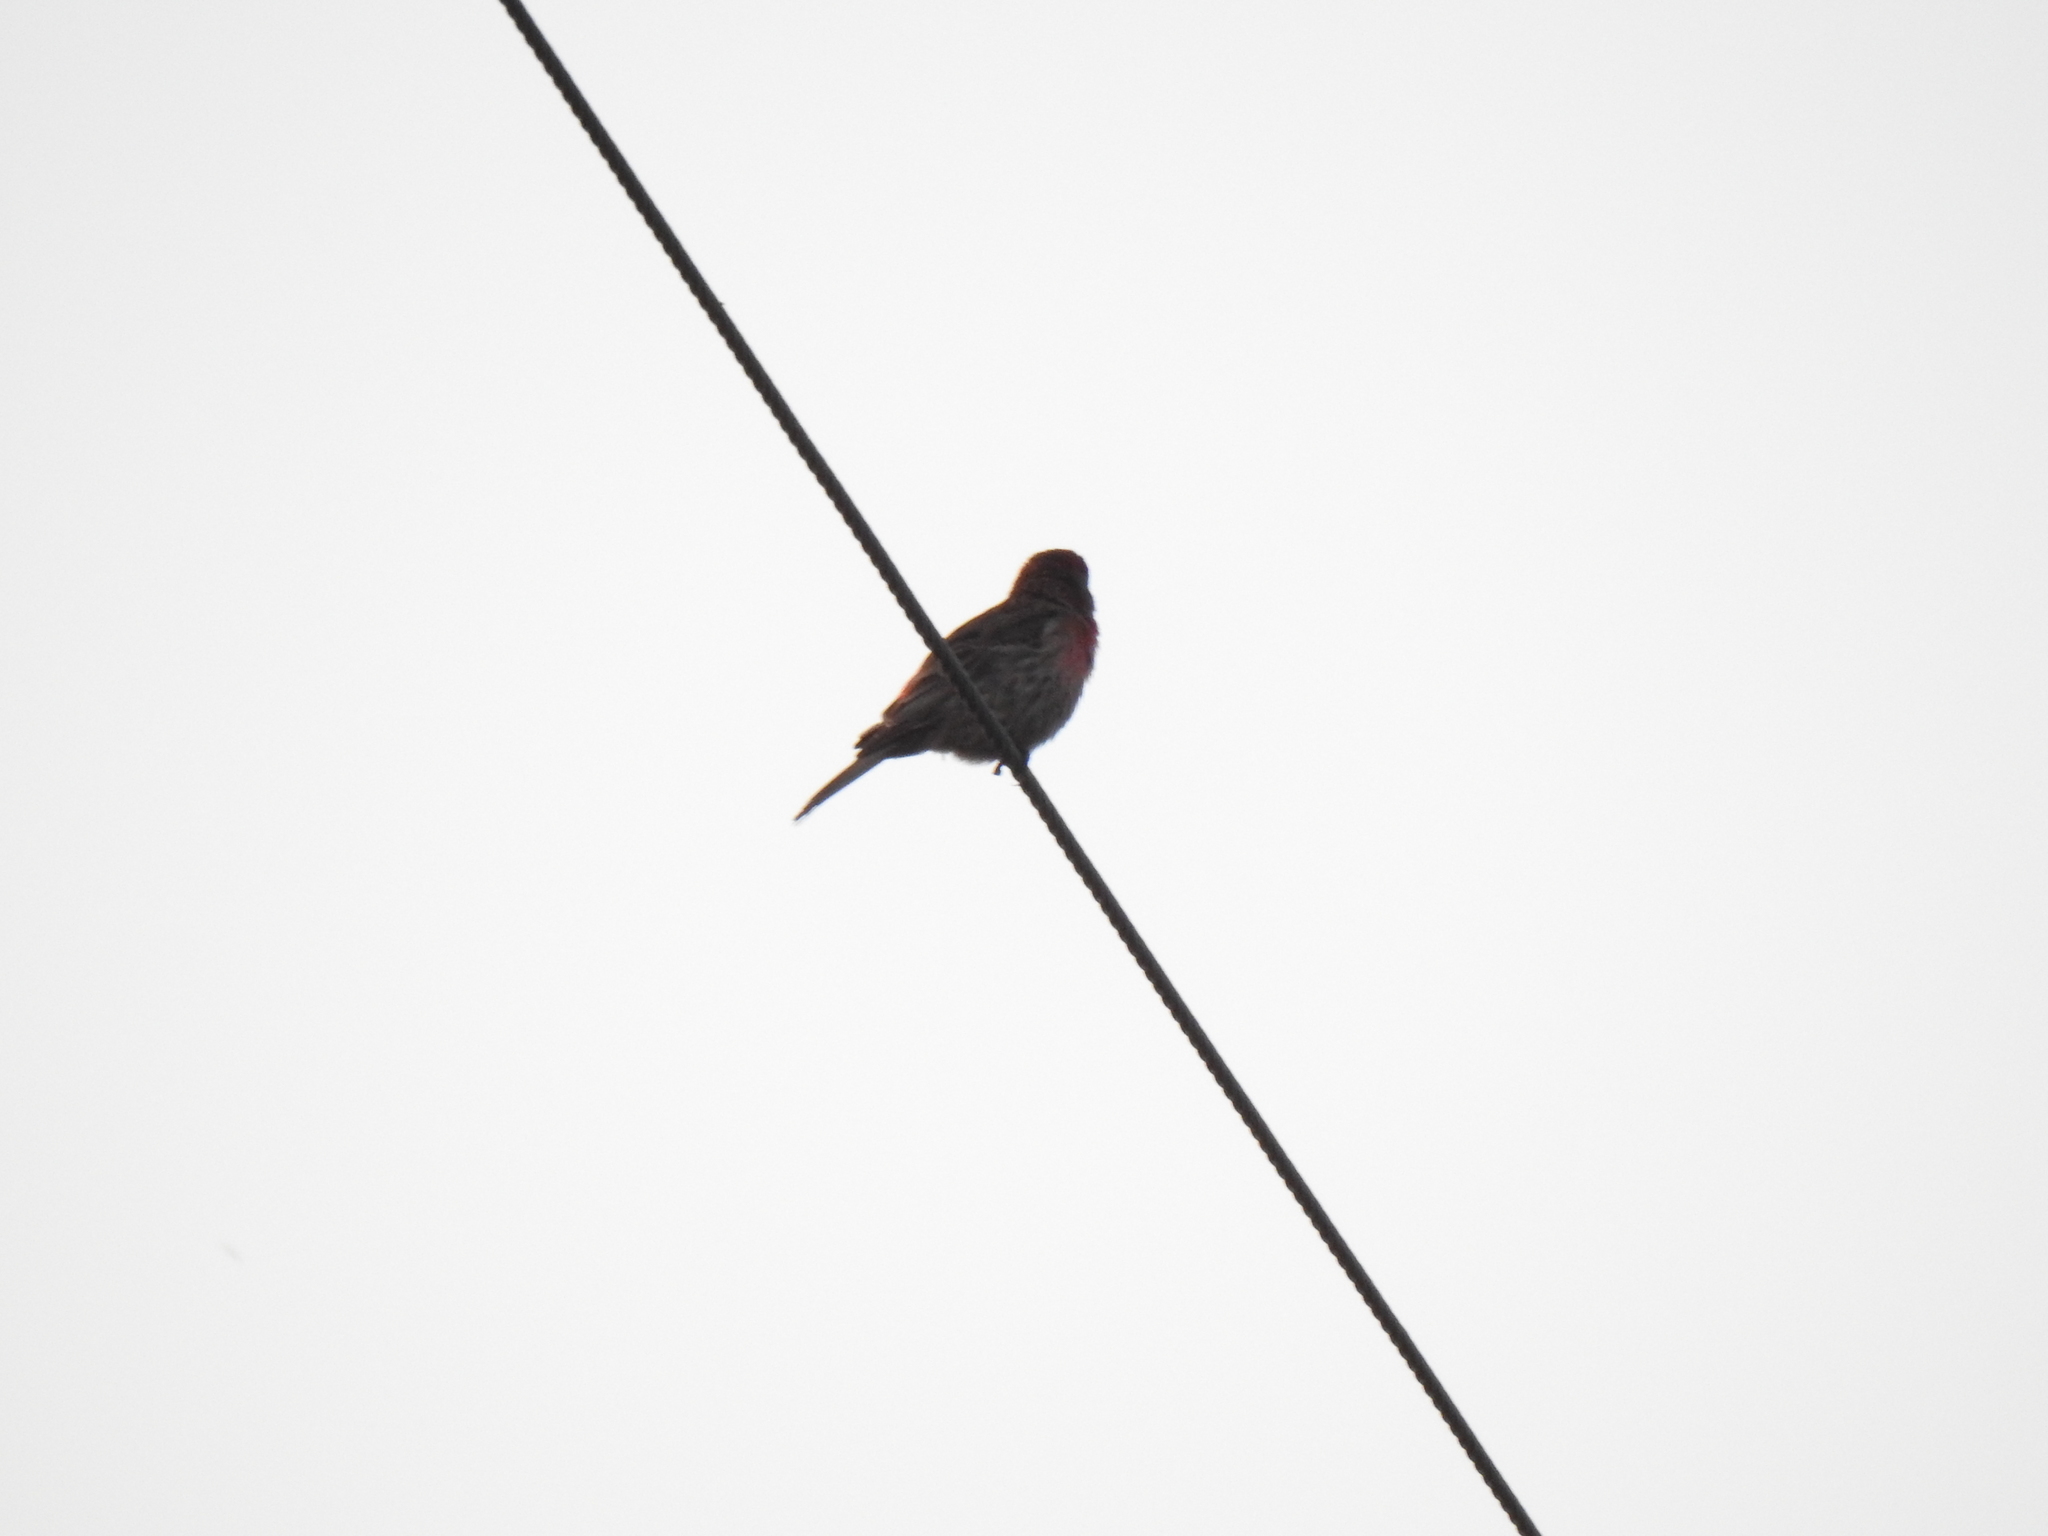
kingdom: Animalia
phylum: Chordata
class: Aves
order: Passeriformes
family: Fringillidae
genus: Haemorhous
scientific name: Haemorhous mexicanus
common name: House finch
